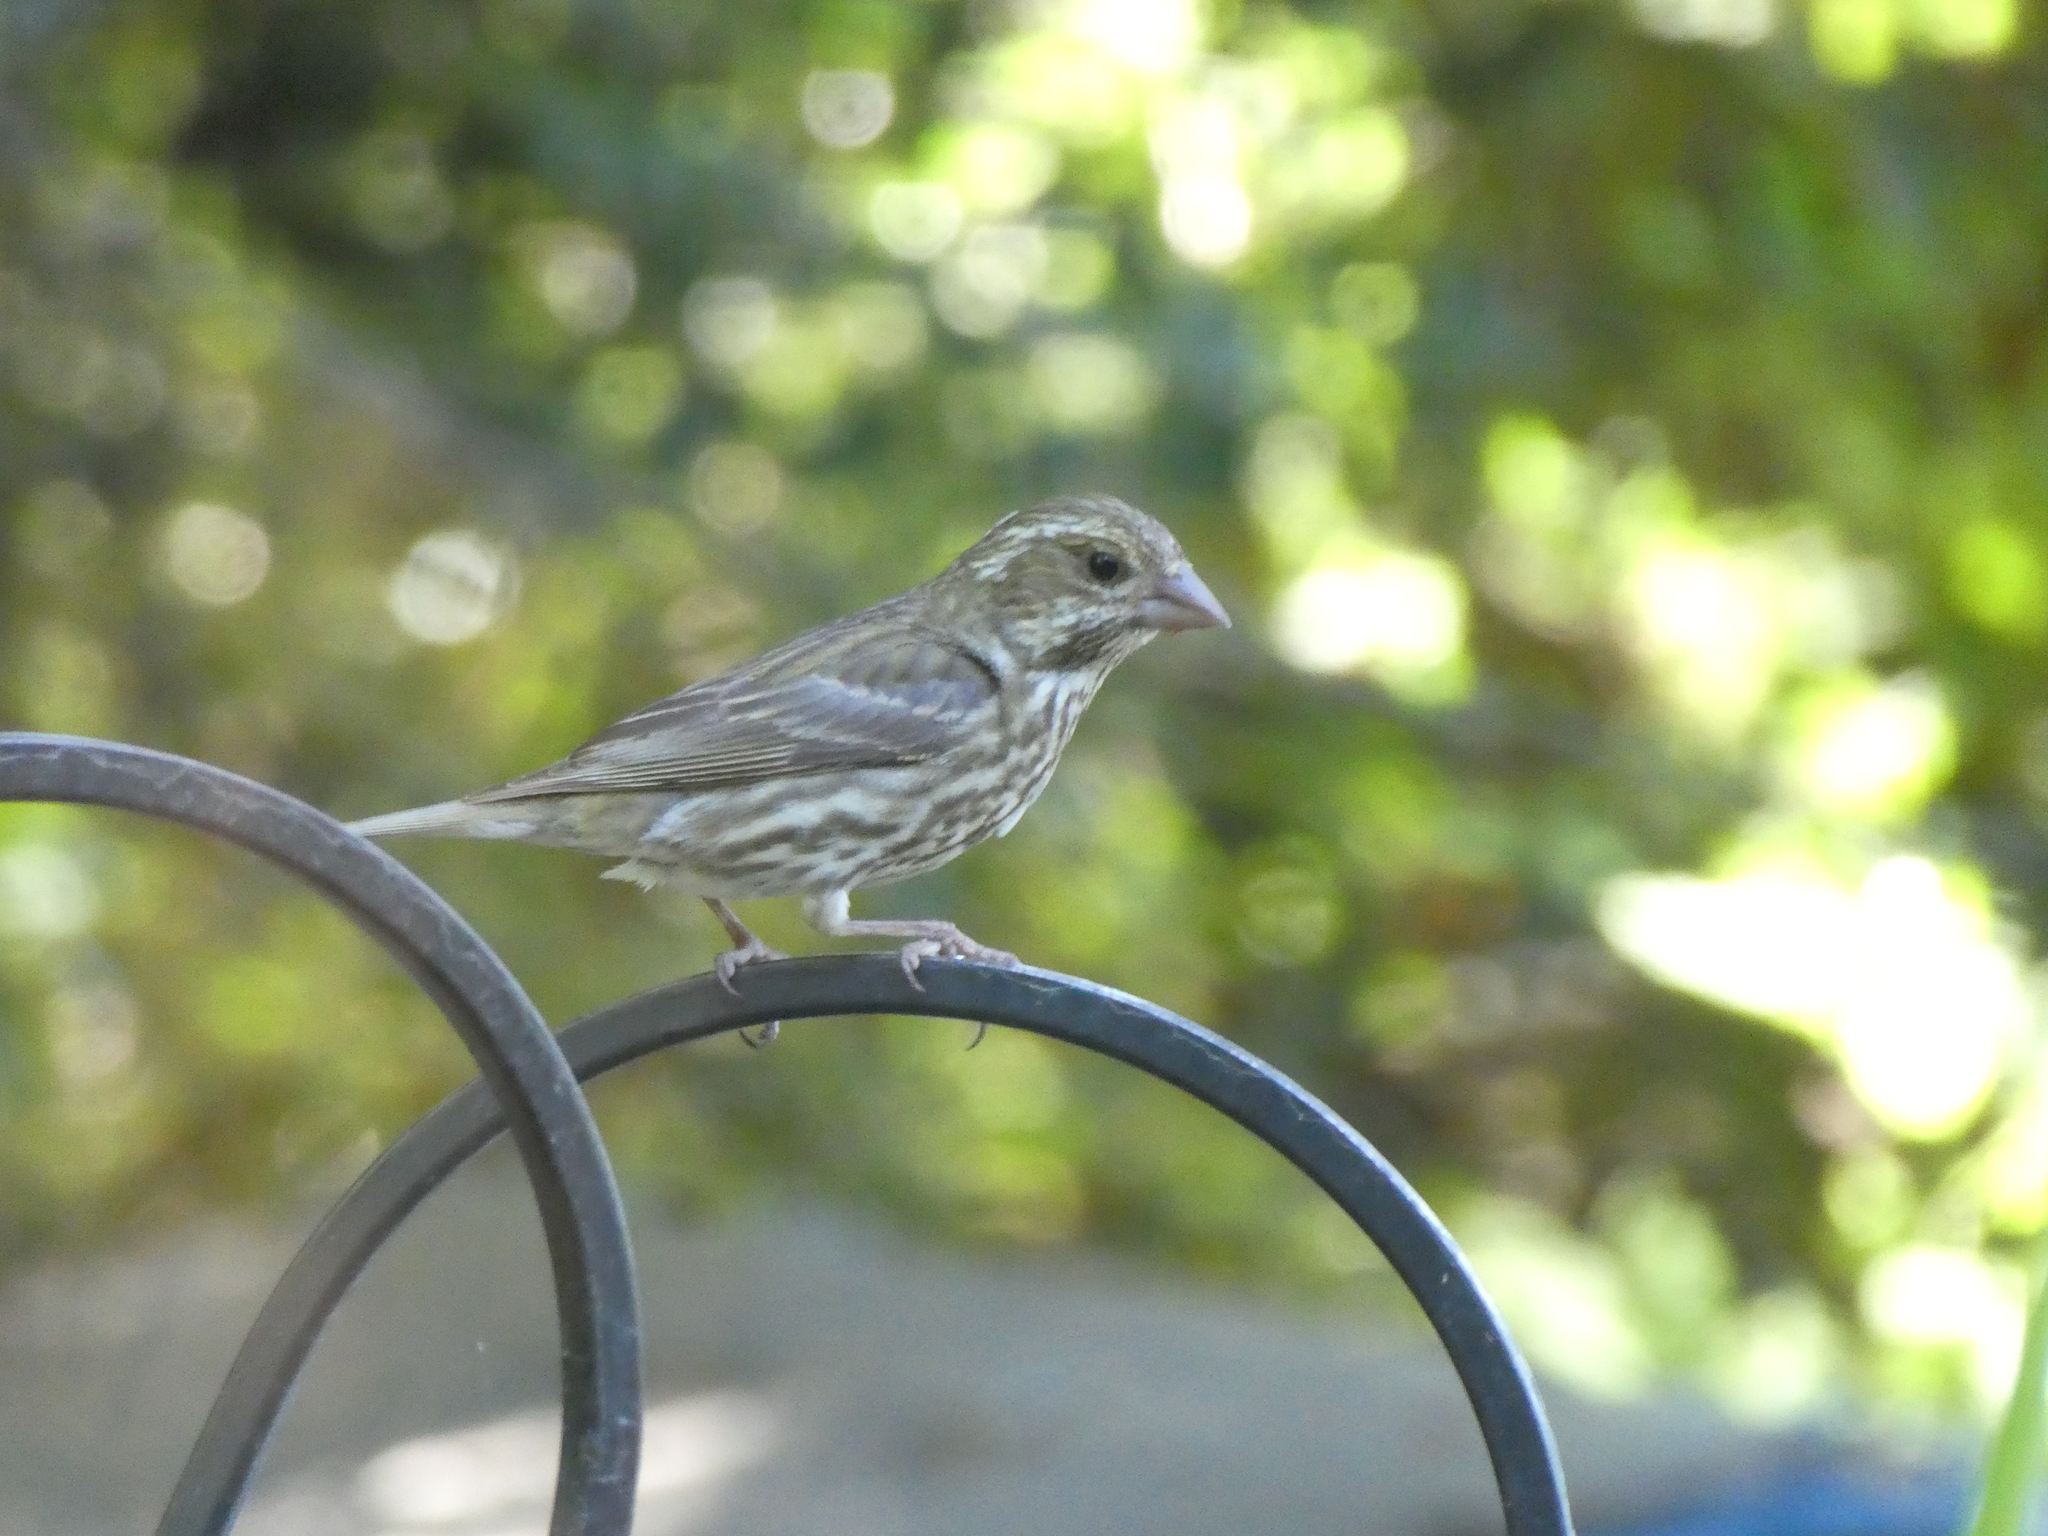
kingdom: Animalia
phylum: Chordata
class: Aves
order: Passeriformes
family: Fringillidae
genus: Haemorhous
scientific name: Haemorhous purpureus
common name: Purple finch
